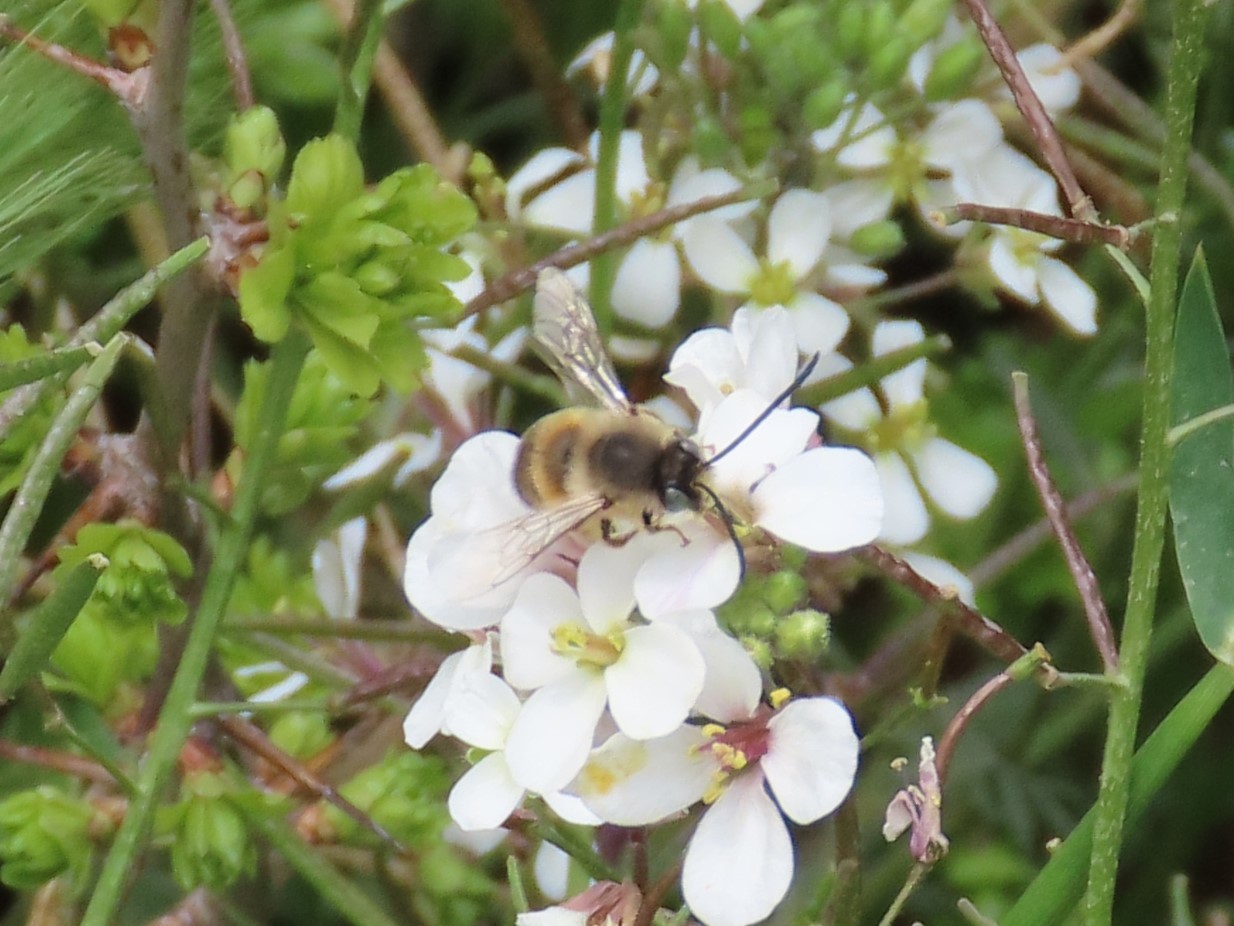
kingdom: Animalia
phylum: Arthropoda
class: Insecta
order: Hymenoptera
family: Apidae
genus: Eucera
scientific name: Eucera nigrilabris
